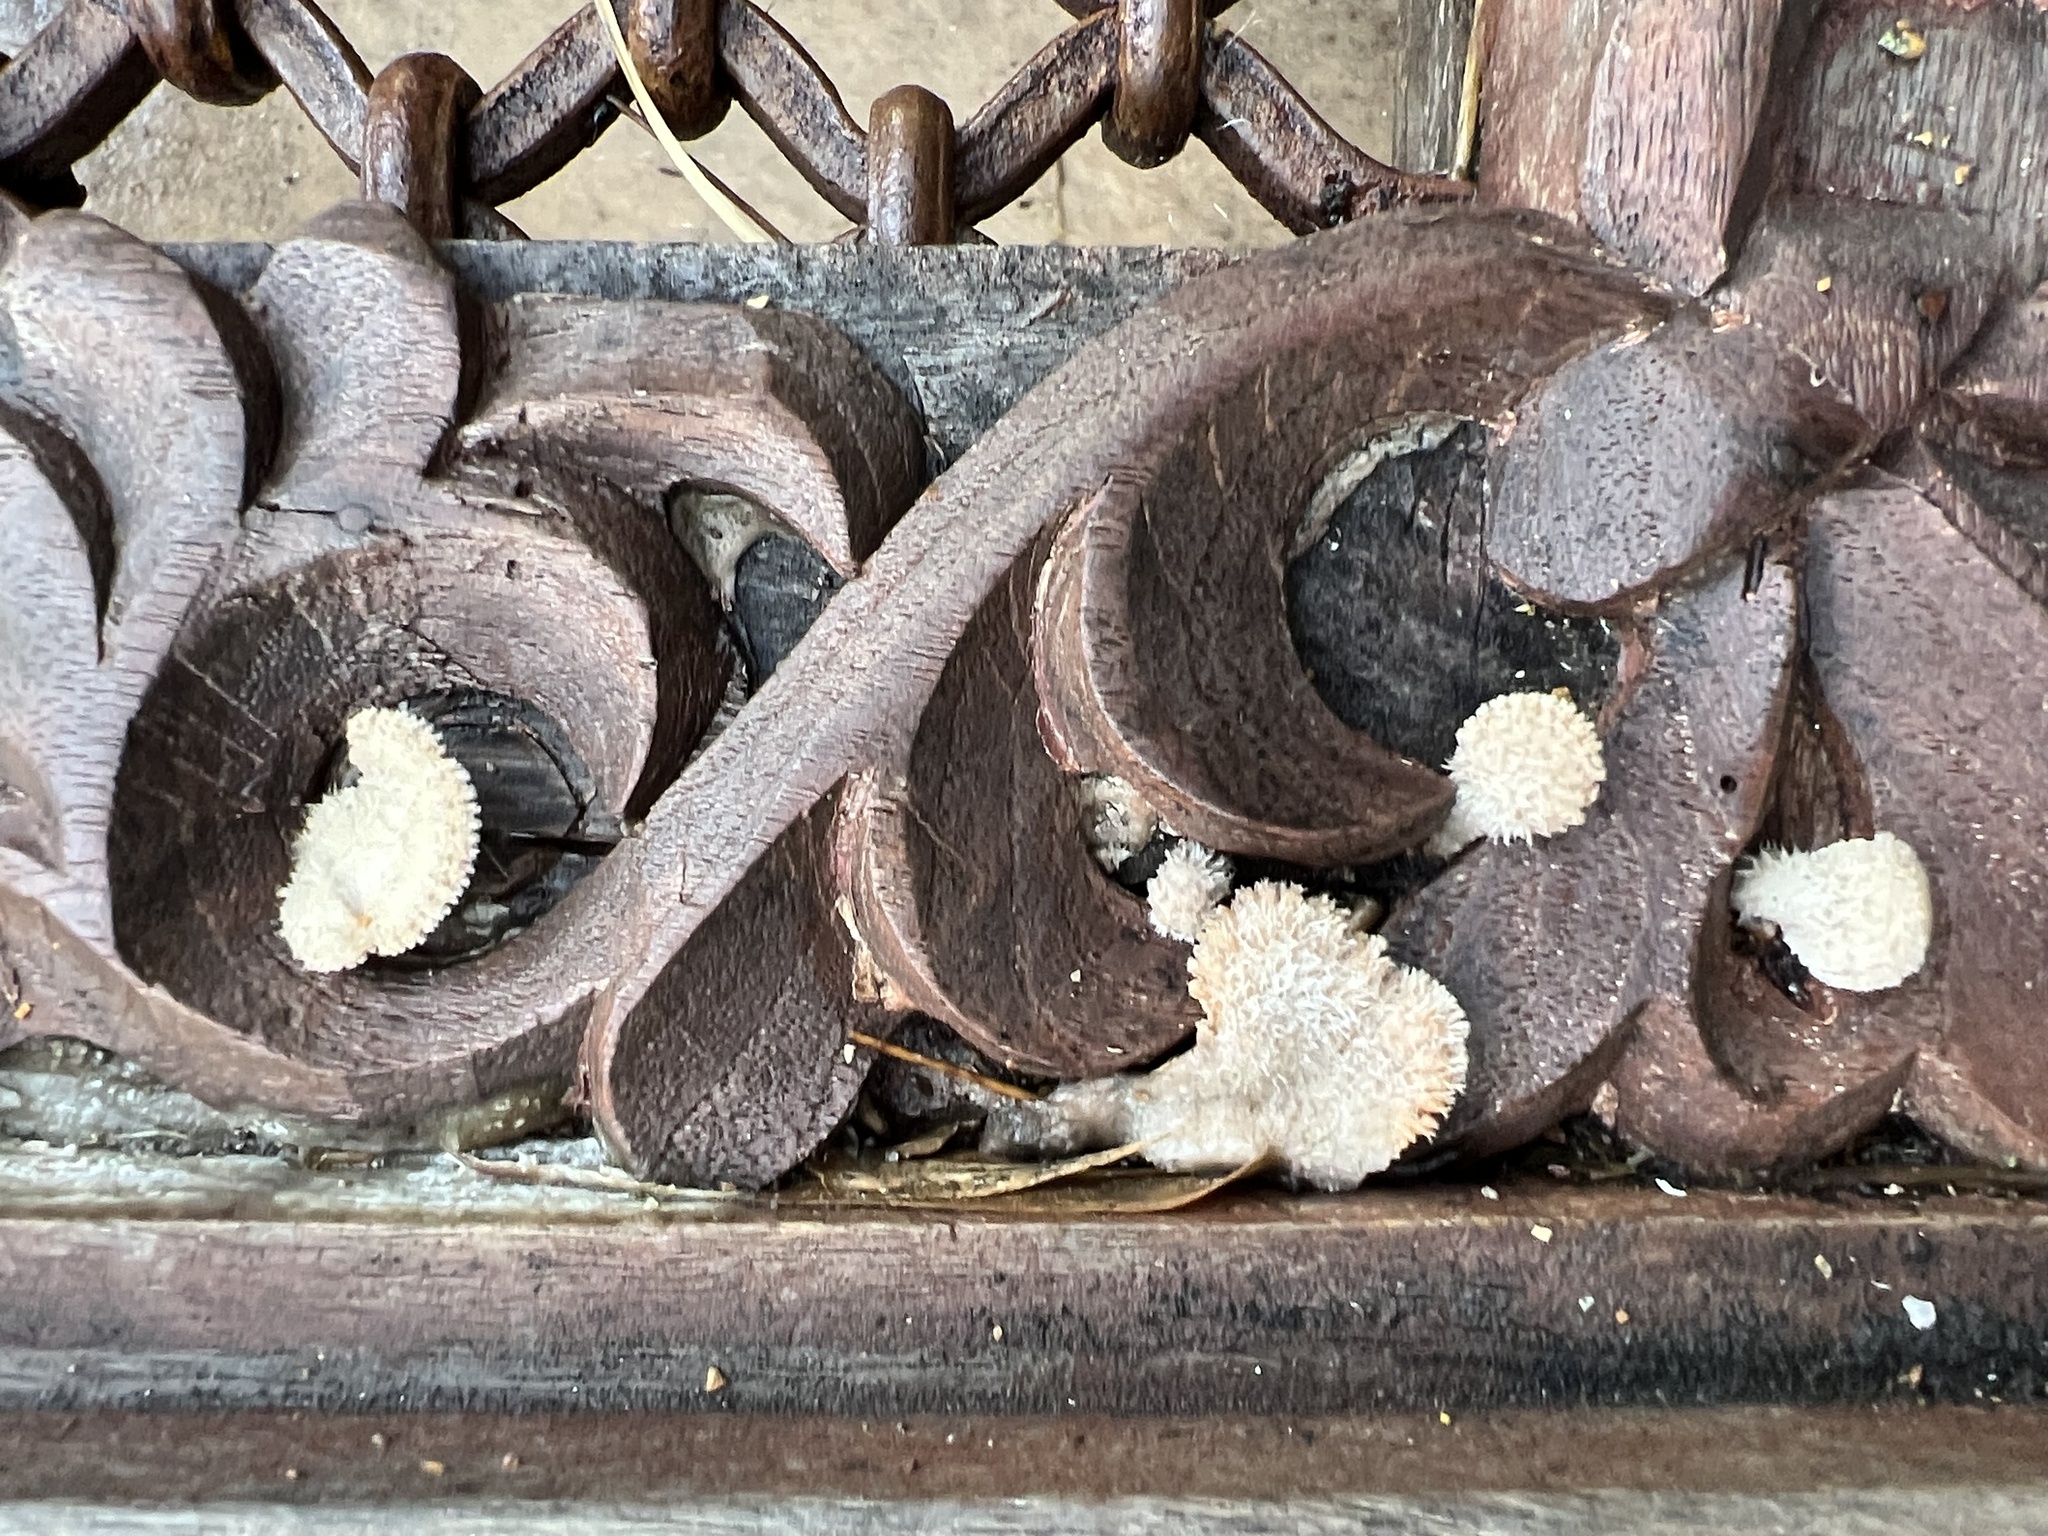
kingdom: Fungi
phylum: Basidiomycota
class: Agaricomycetes
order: Agaricales
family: Schizophyllaceae
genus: Schizophyllum
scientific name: Schizophyllum commune
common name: Common porecrust
